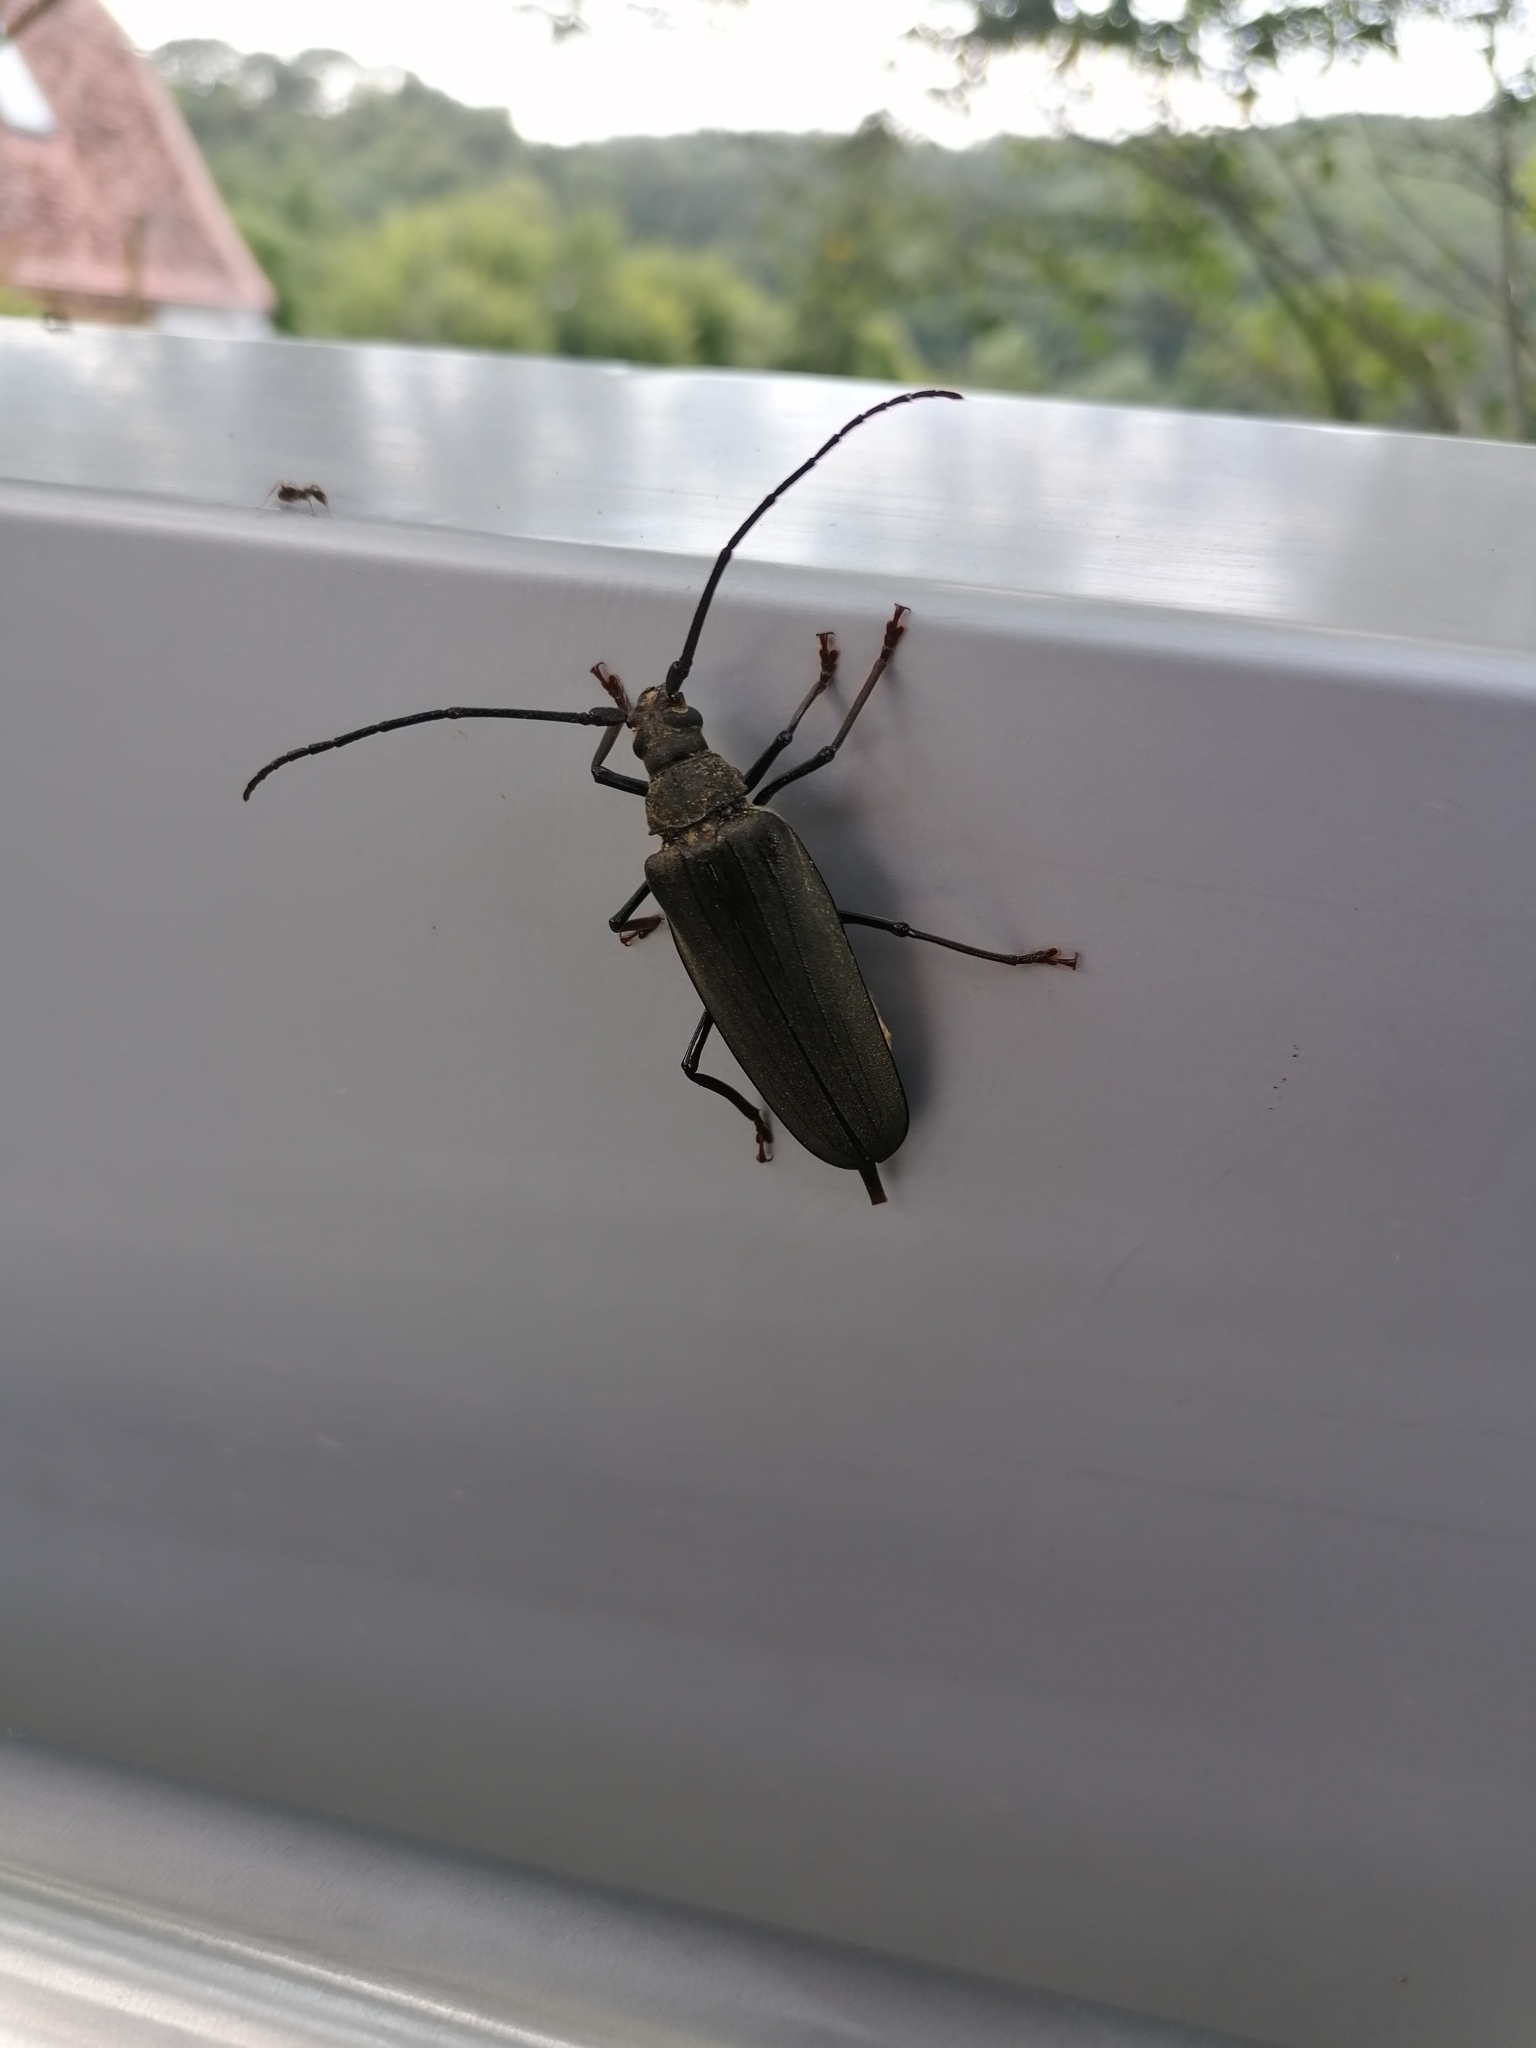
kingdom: Animalia
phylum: Arthropoda
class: Insecta
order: Coleoptera
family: Cerambycidae
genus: Aegosoma
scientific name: Aegosoma scabricorne
